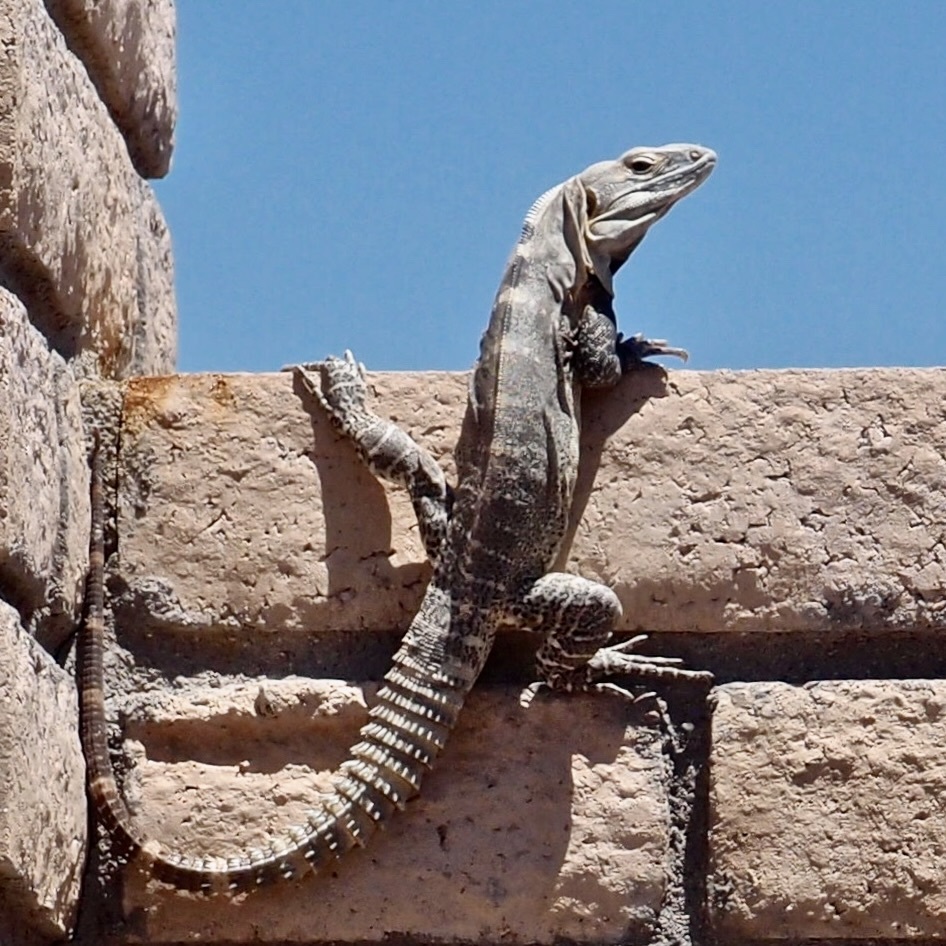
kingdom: Animalia
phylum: Chordata
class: Squamata
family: Iguanidae
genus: Ctenosaura
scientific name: Ctenosaura macrolopha
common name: Cape spinytail iguana
